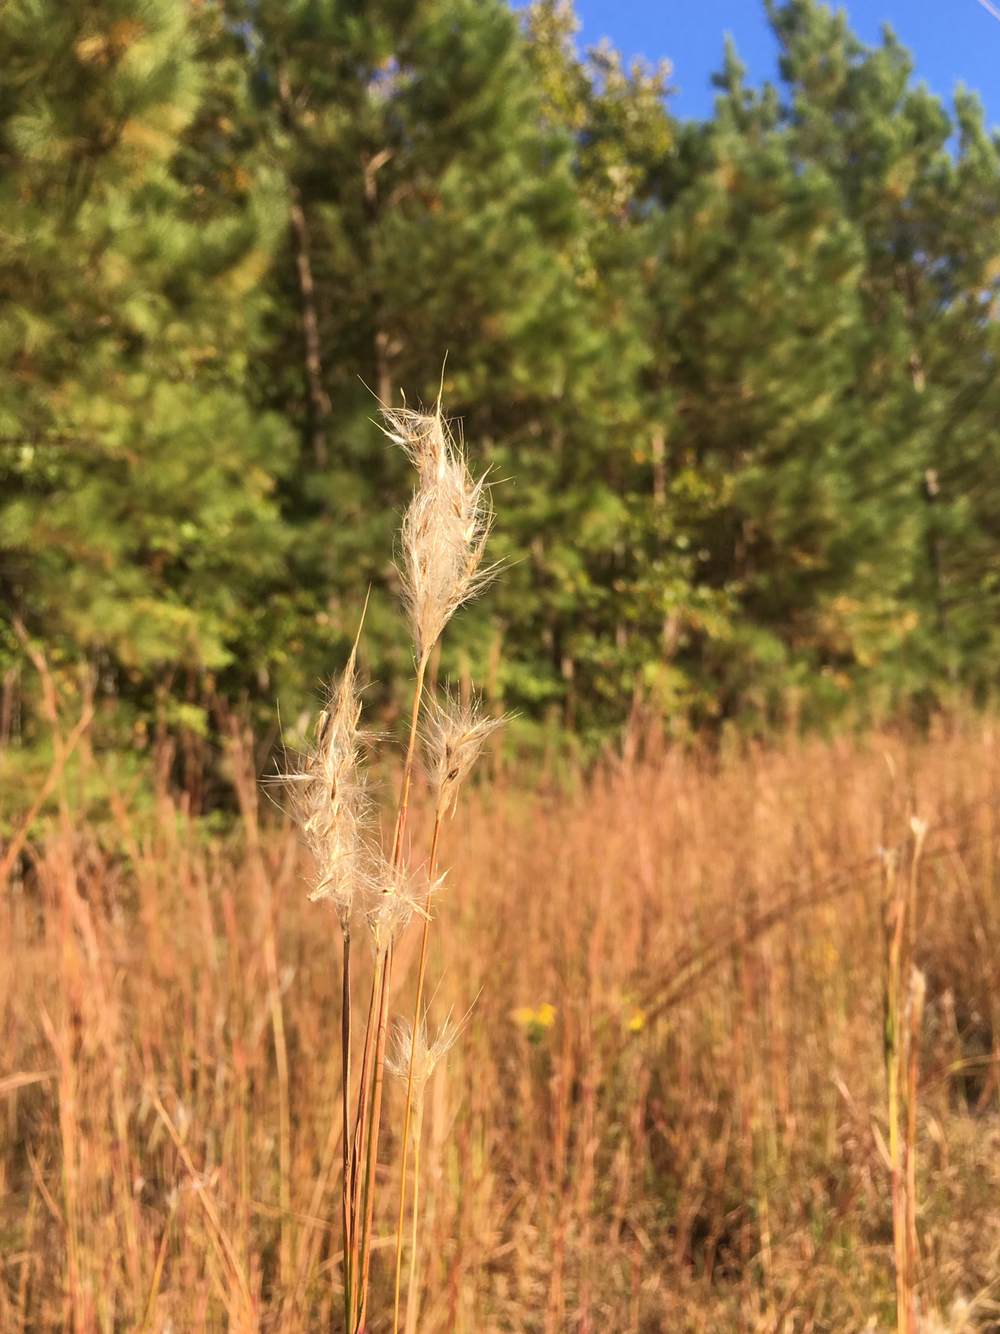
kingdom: Plantae
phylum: Tracheophyta
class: Liliopsida
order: Poales
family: Poaceae
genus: Andropogon
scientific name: Andropogon ternarius
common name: Split bluestem
